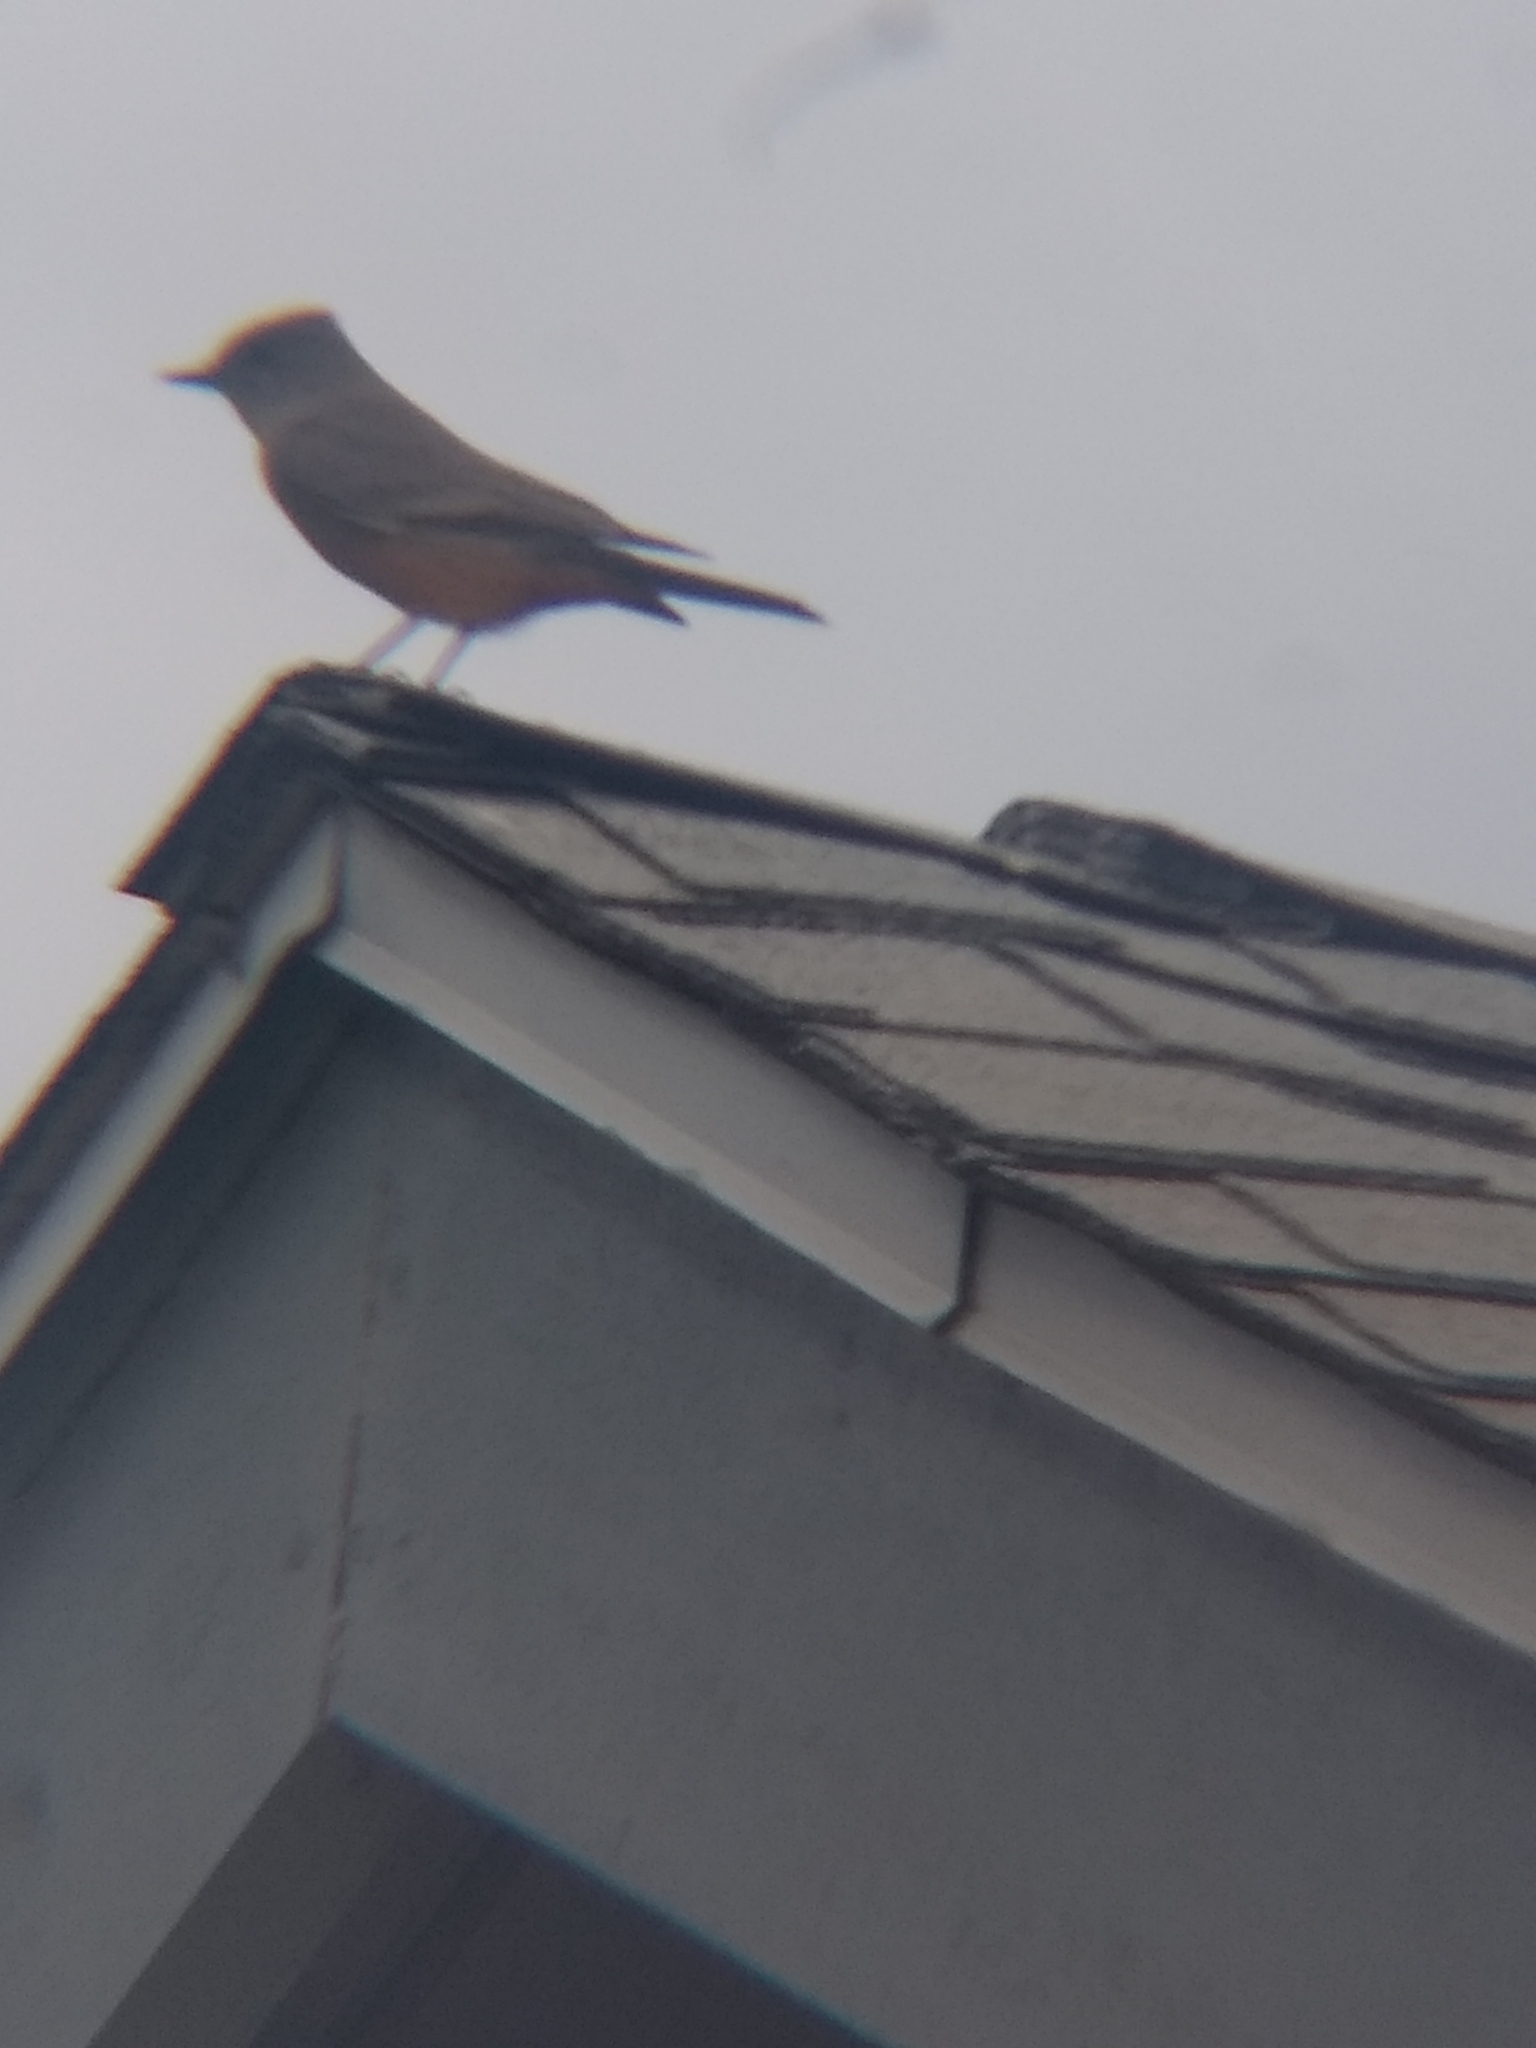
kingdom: Animalia
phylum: Chordata
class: Aves
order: Passeriformes
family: Tyrannidae
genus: Sayornis
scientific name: Sayornis saya
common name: Say's phoebe
